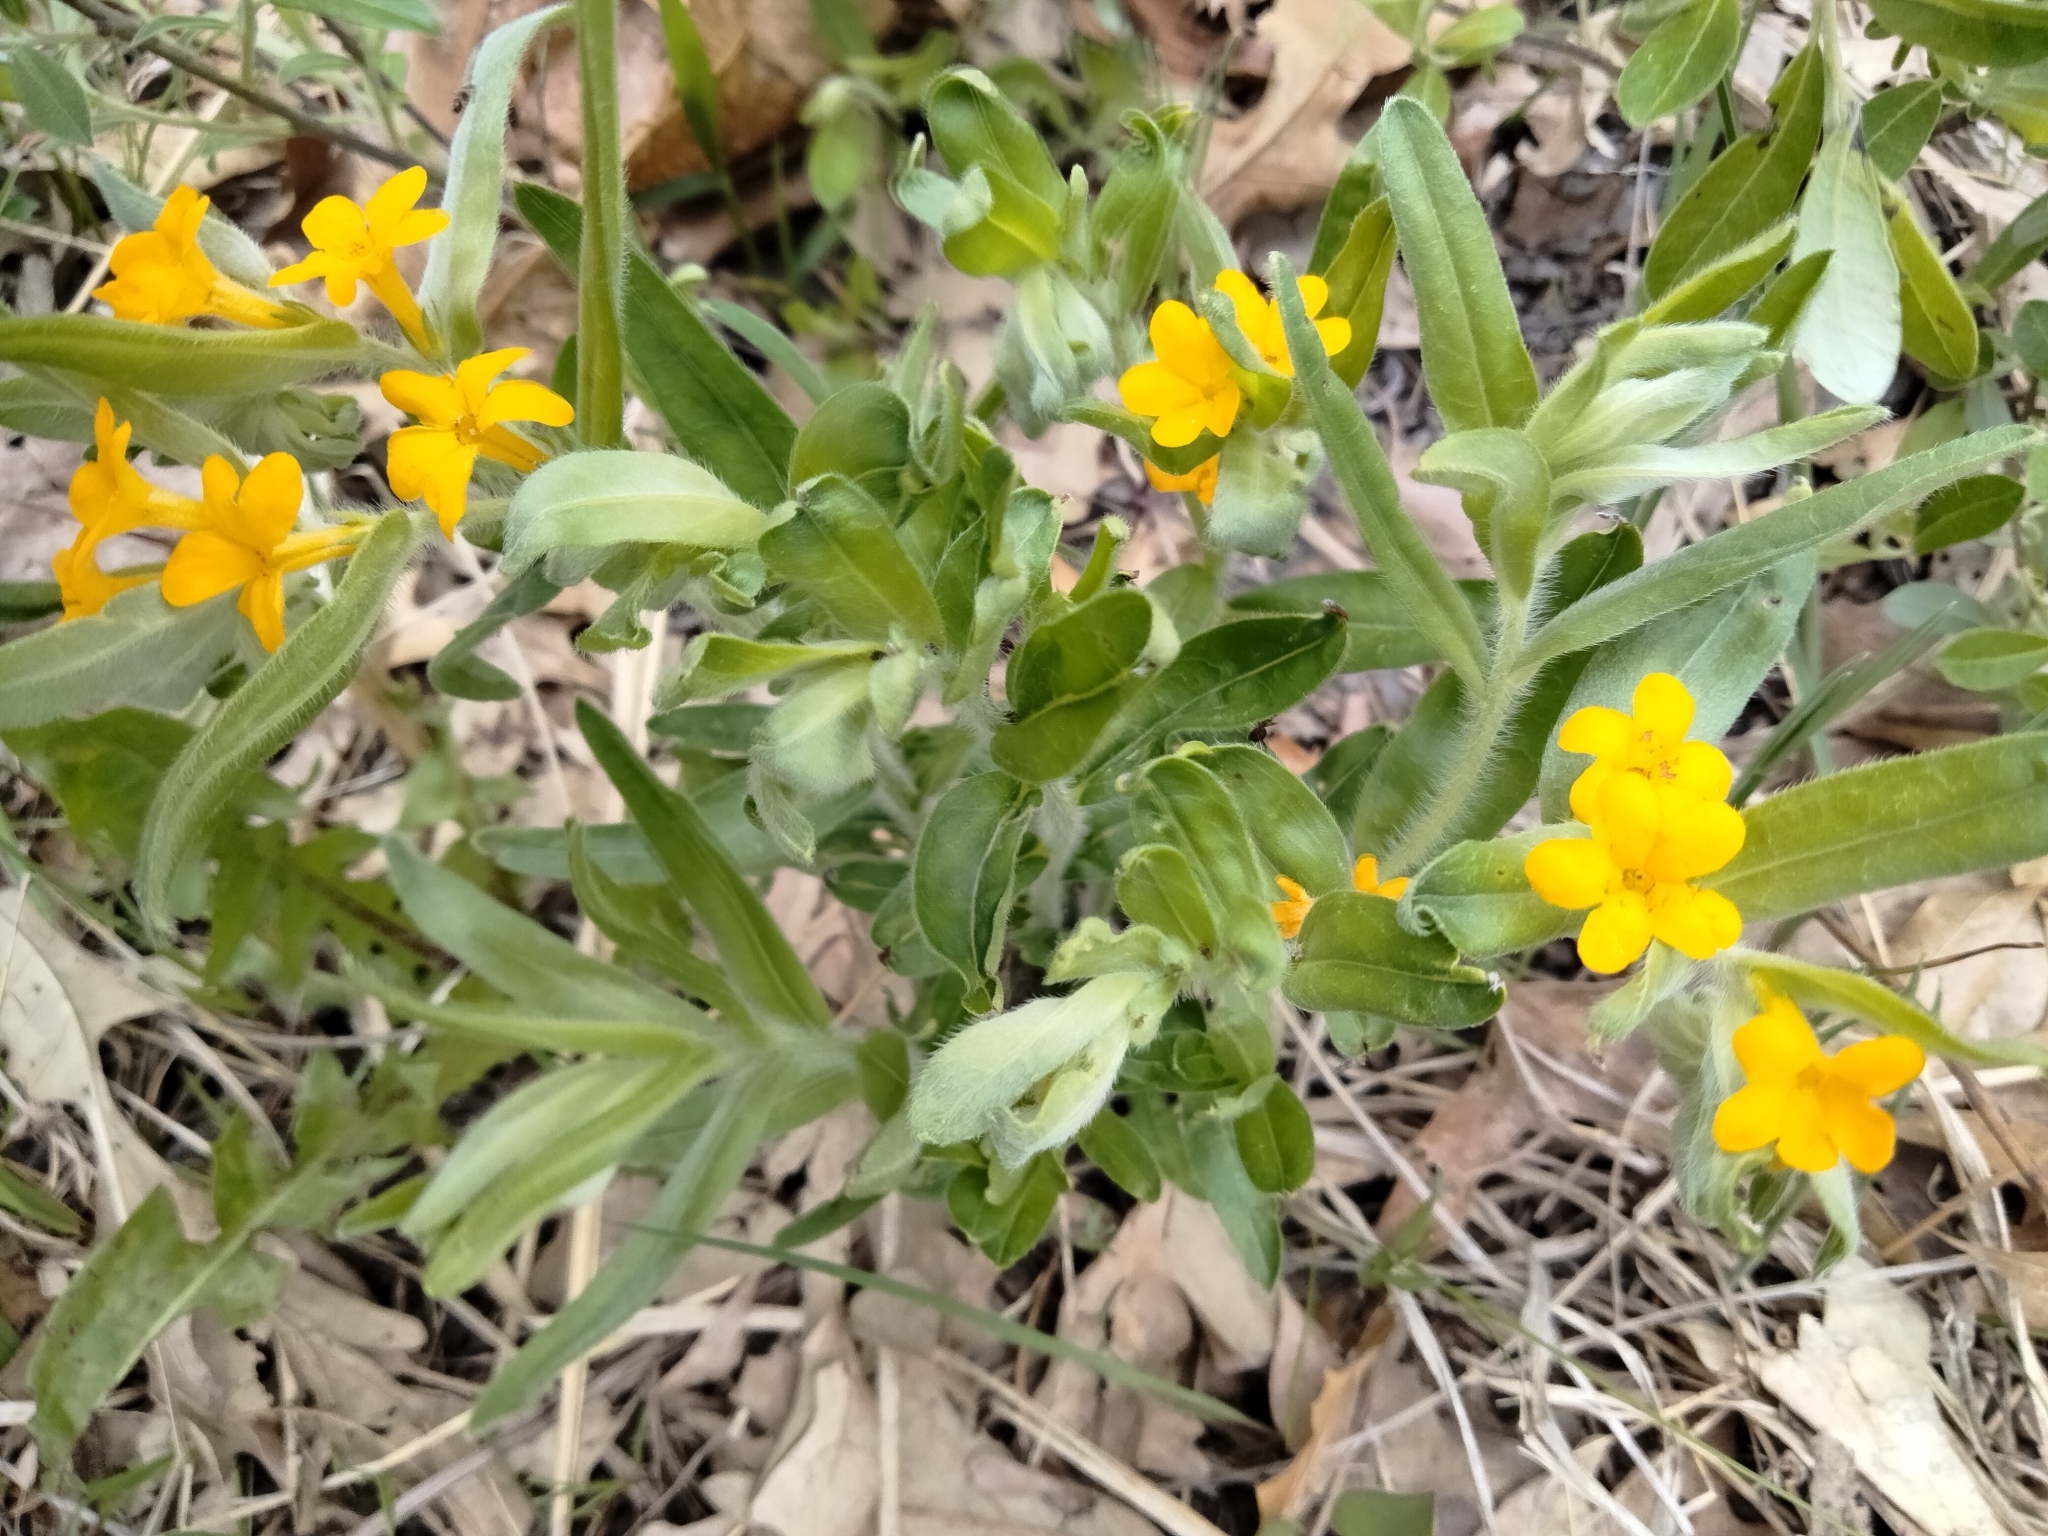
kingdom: Plantae
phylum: Tracheophyta
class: Magnoliopsida
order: Boraginales
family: Boraginaceae
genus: Lithospermum
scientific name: Lithospermum canescens
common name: Hoary puccoon
